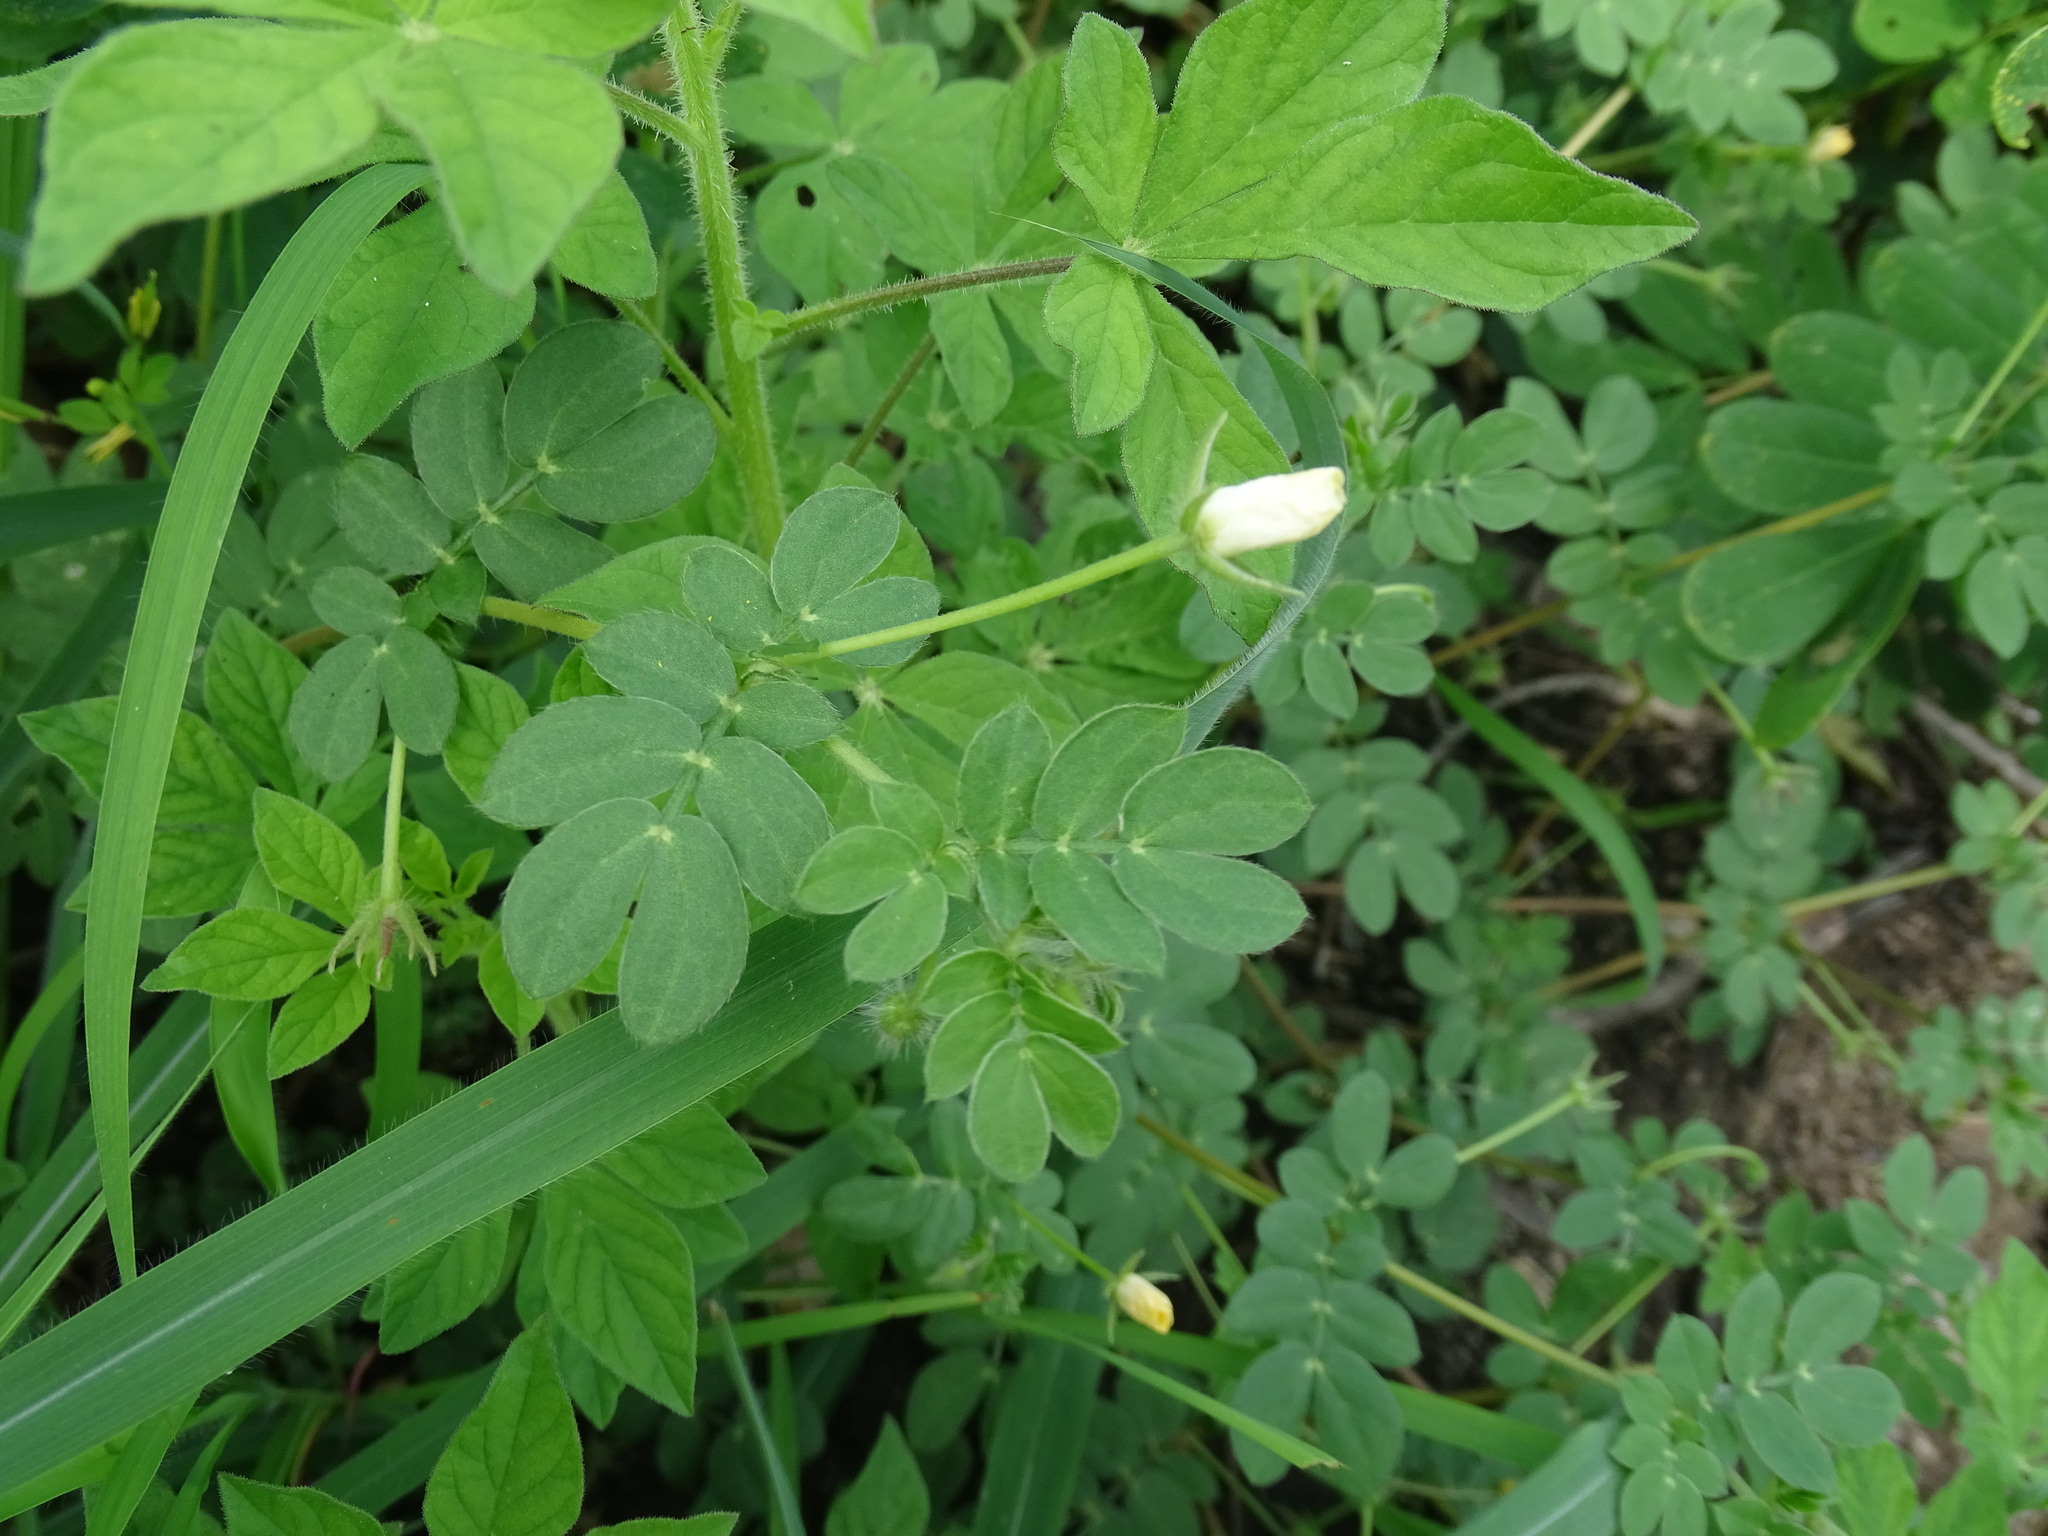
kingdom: Plantae
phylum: Tracheophyta
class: Magnoliopsida
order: Zygophyllales
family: Zygophyllaceae
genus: Kallstroemia
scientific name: Kallstroemia maxima
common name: Big caltropa
